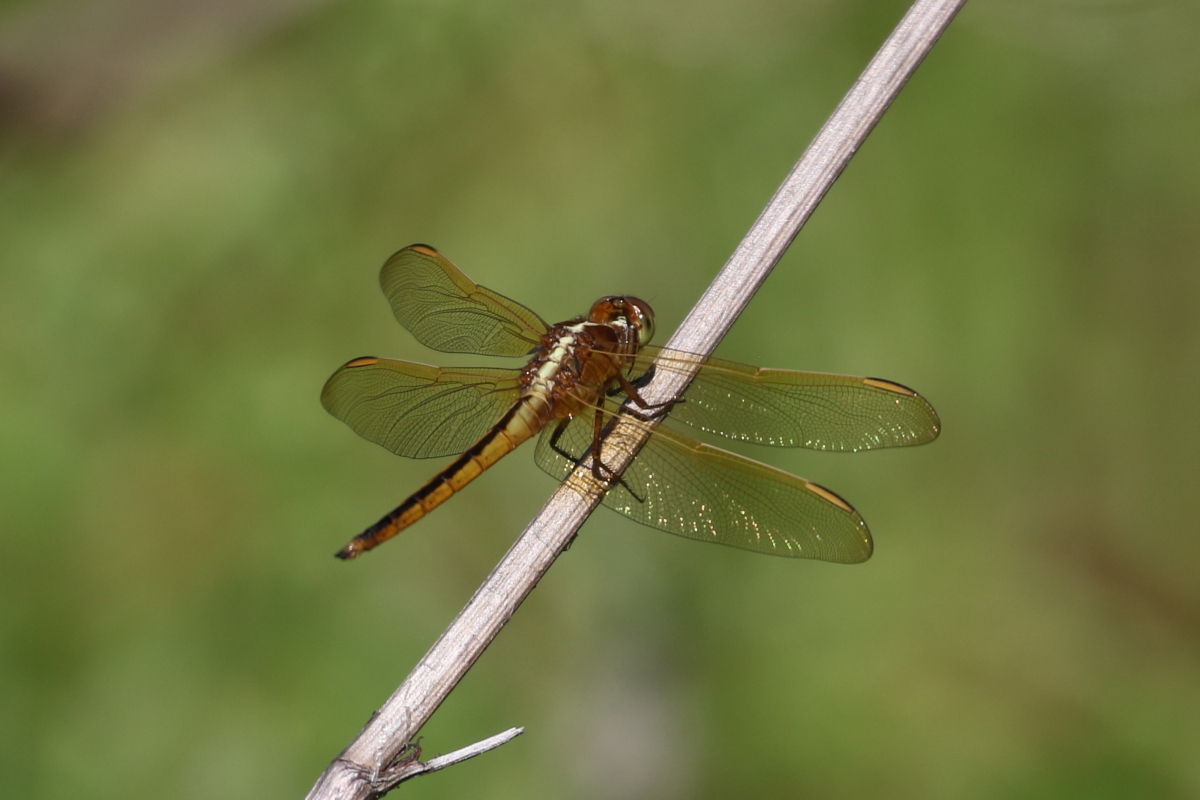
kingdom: Animalia
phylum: Arthropoda
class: Insecta
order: Odonata
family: Libellulidae
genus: Libellula
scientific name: Libellula needhami
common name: Needham's skimmer
